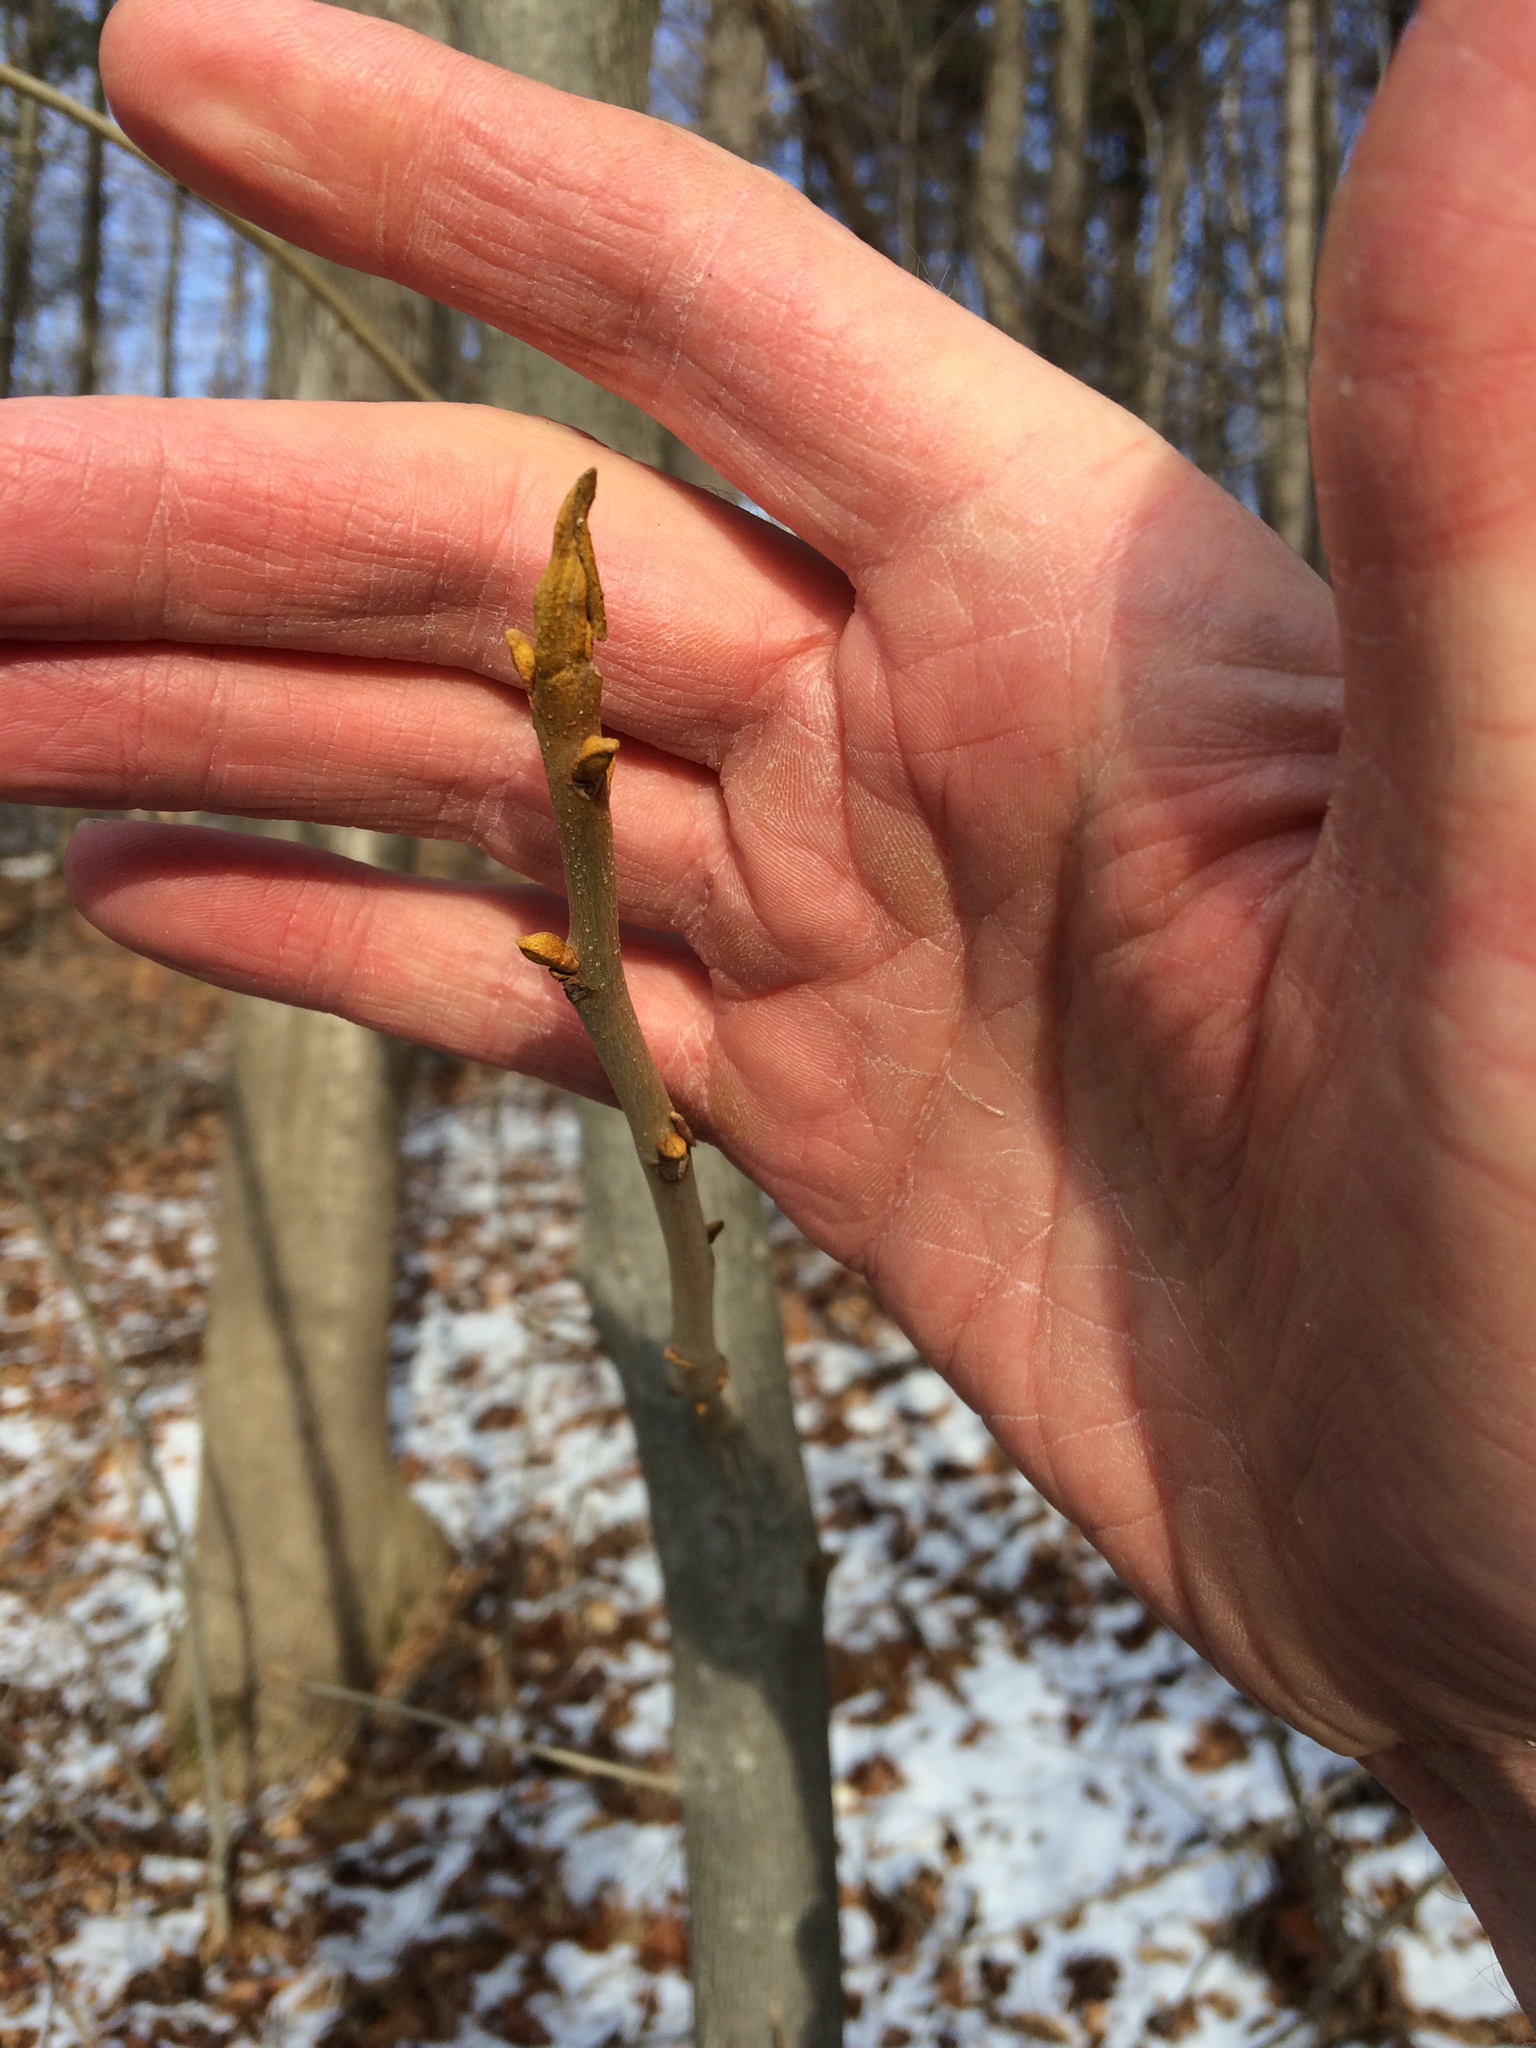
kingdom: Plantae
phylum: Tracheophyta
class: Magnoliopsida
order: Fagales
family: Juglandaceae
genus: Carya
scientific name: Carya cordiformis
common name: Bitternut hickory
